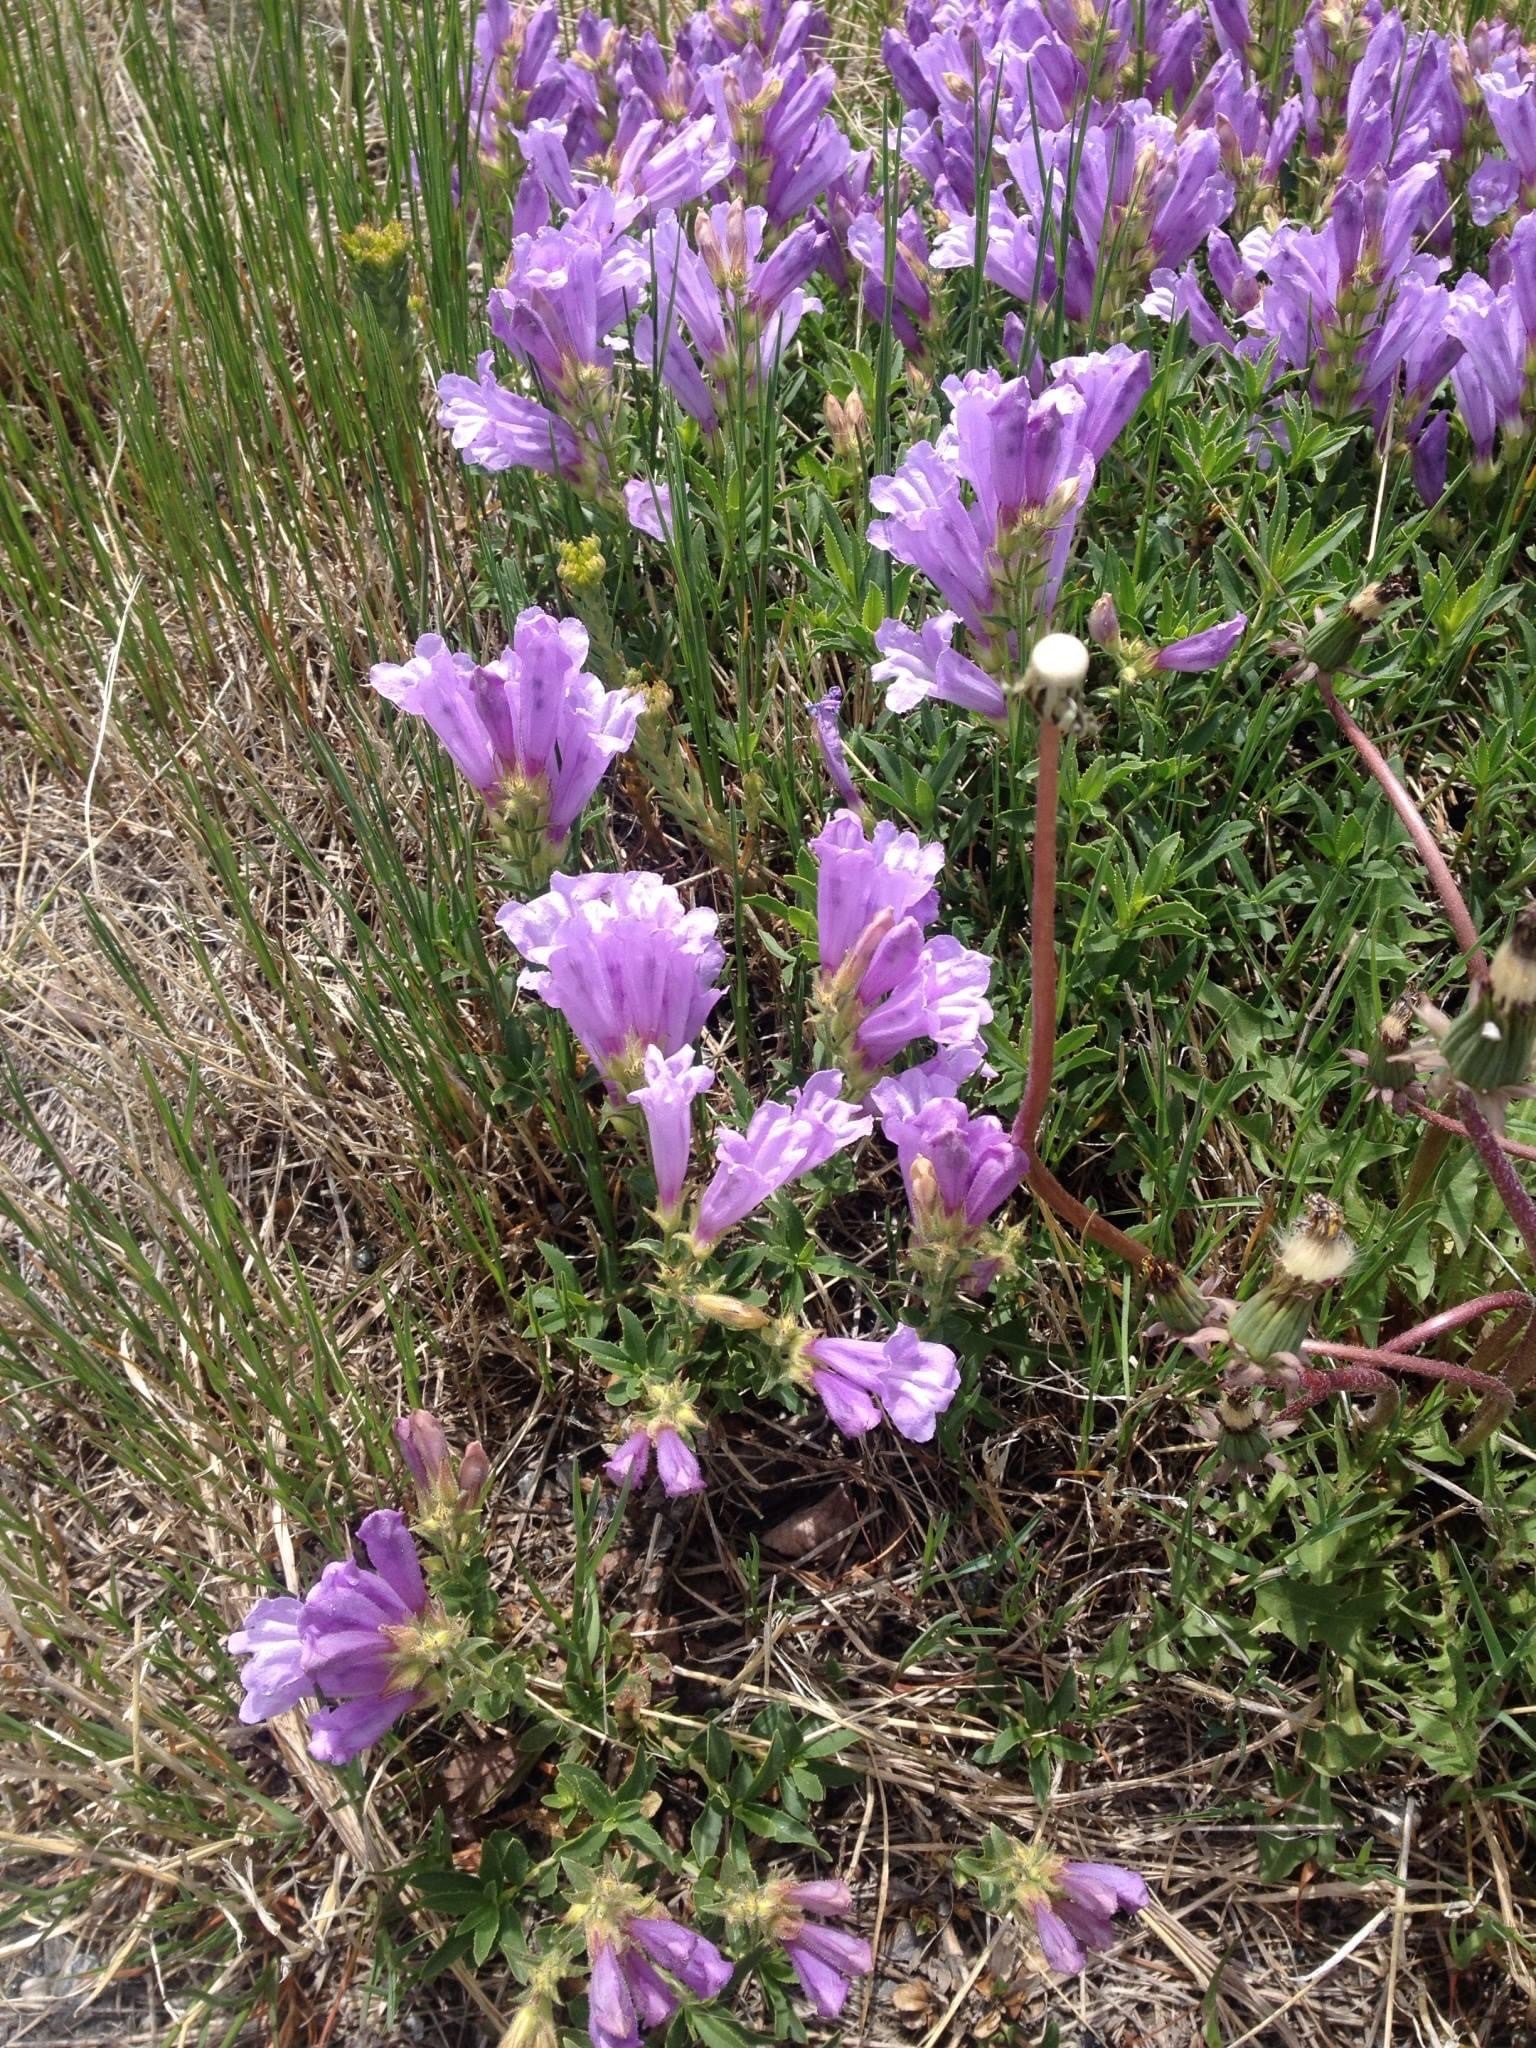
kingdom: Plantae
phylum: Tracheophyta
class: Magnoliopsida
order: Lamiales
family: Plantaginaceae
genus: Penstemon
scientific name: Penstemon fruticosus
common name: Bush penstemon
